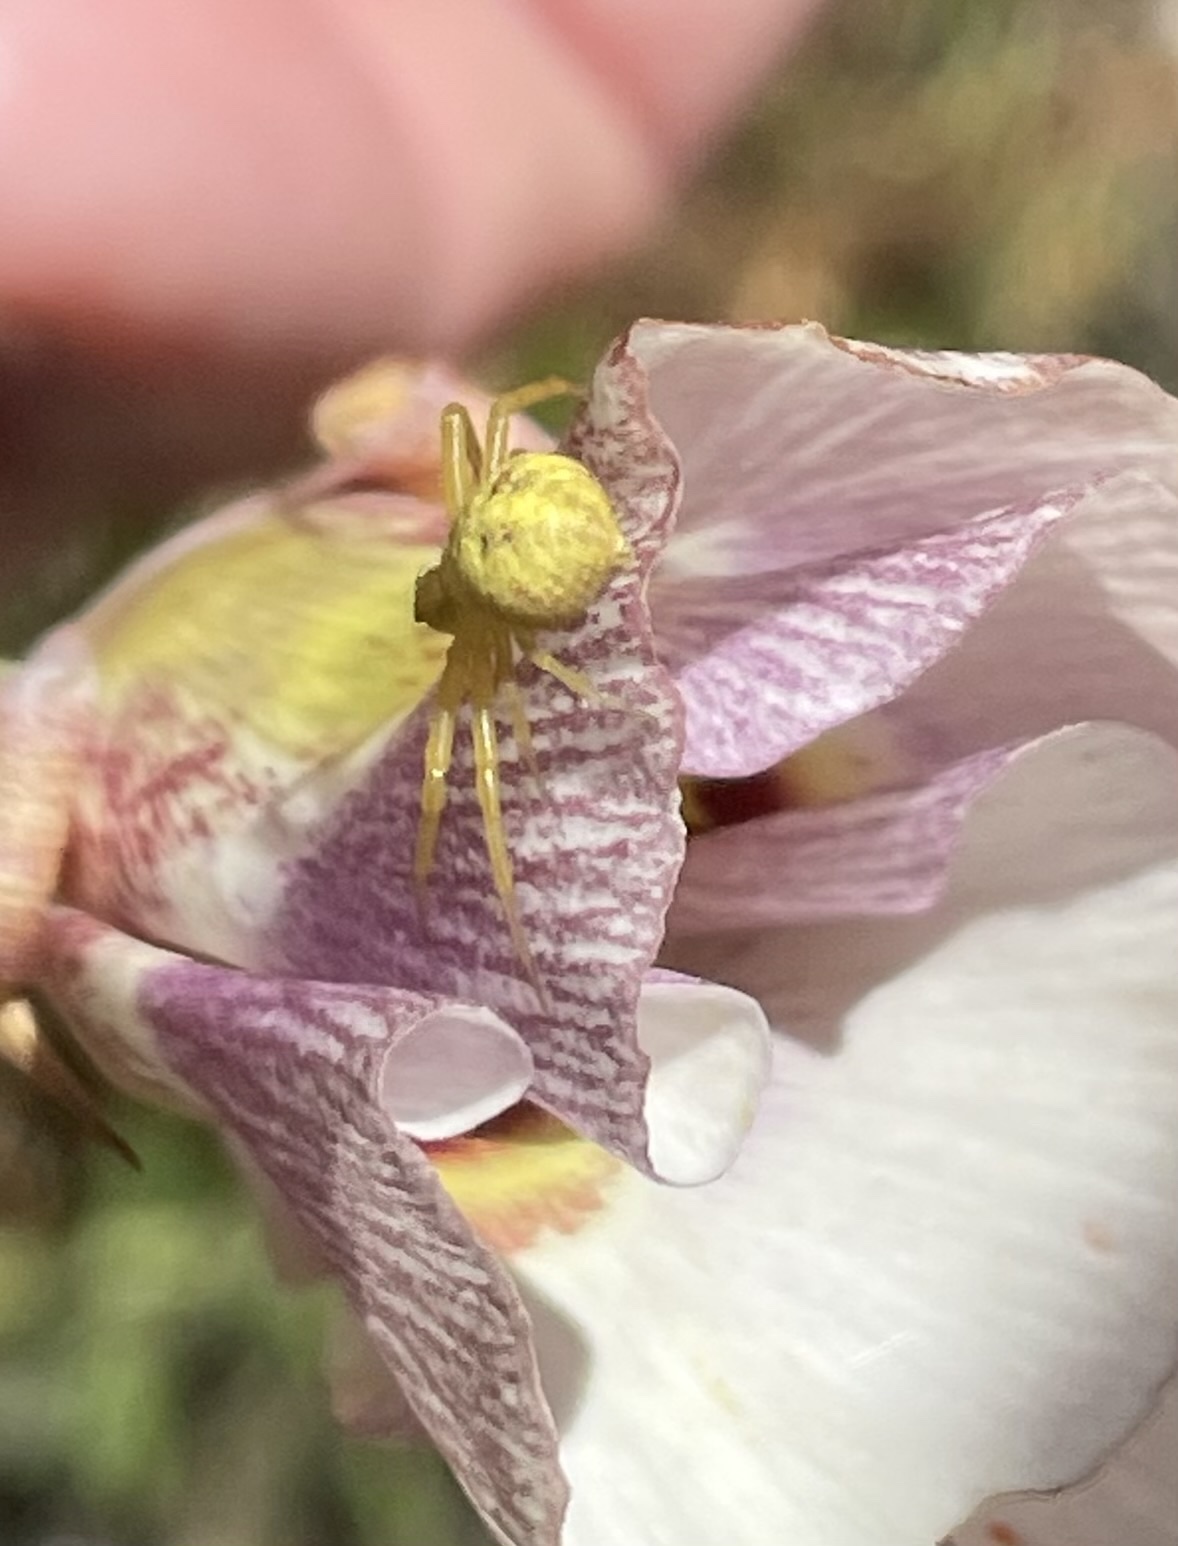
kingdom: Animalia
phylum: Arthropoda
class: Arachnida
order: Araneae
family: Thomisidae
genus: Misumena
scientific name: Misumena vatia
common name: Goldenrod crab spider
